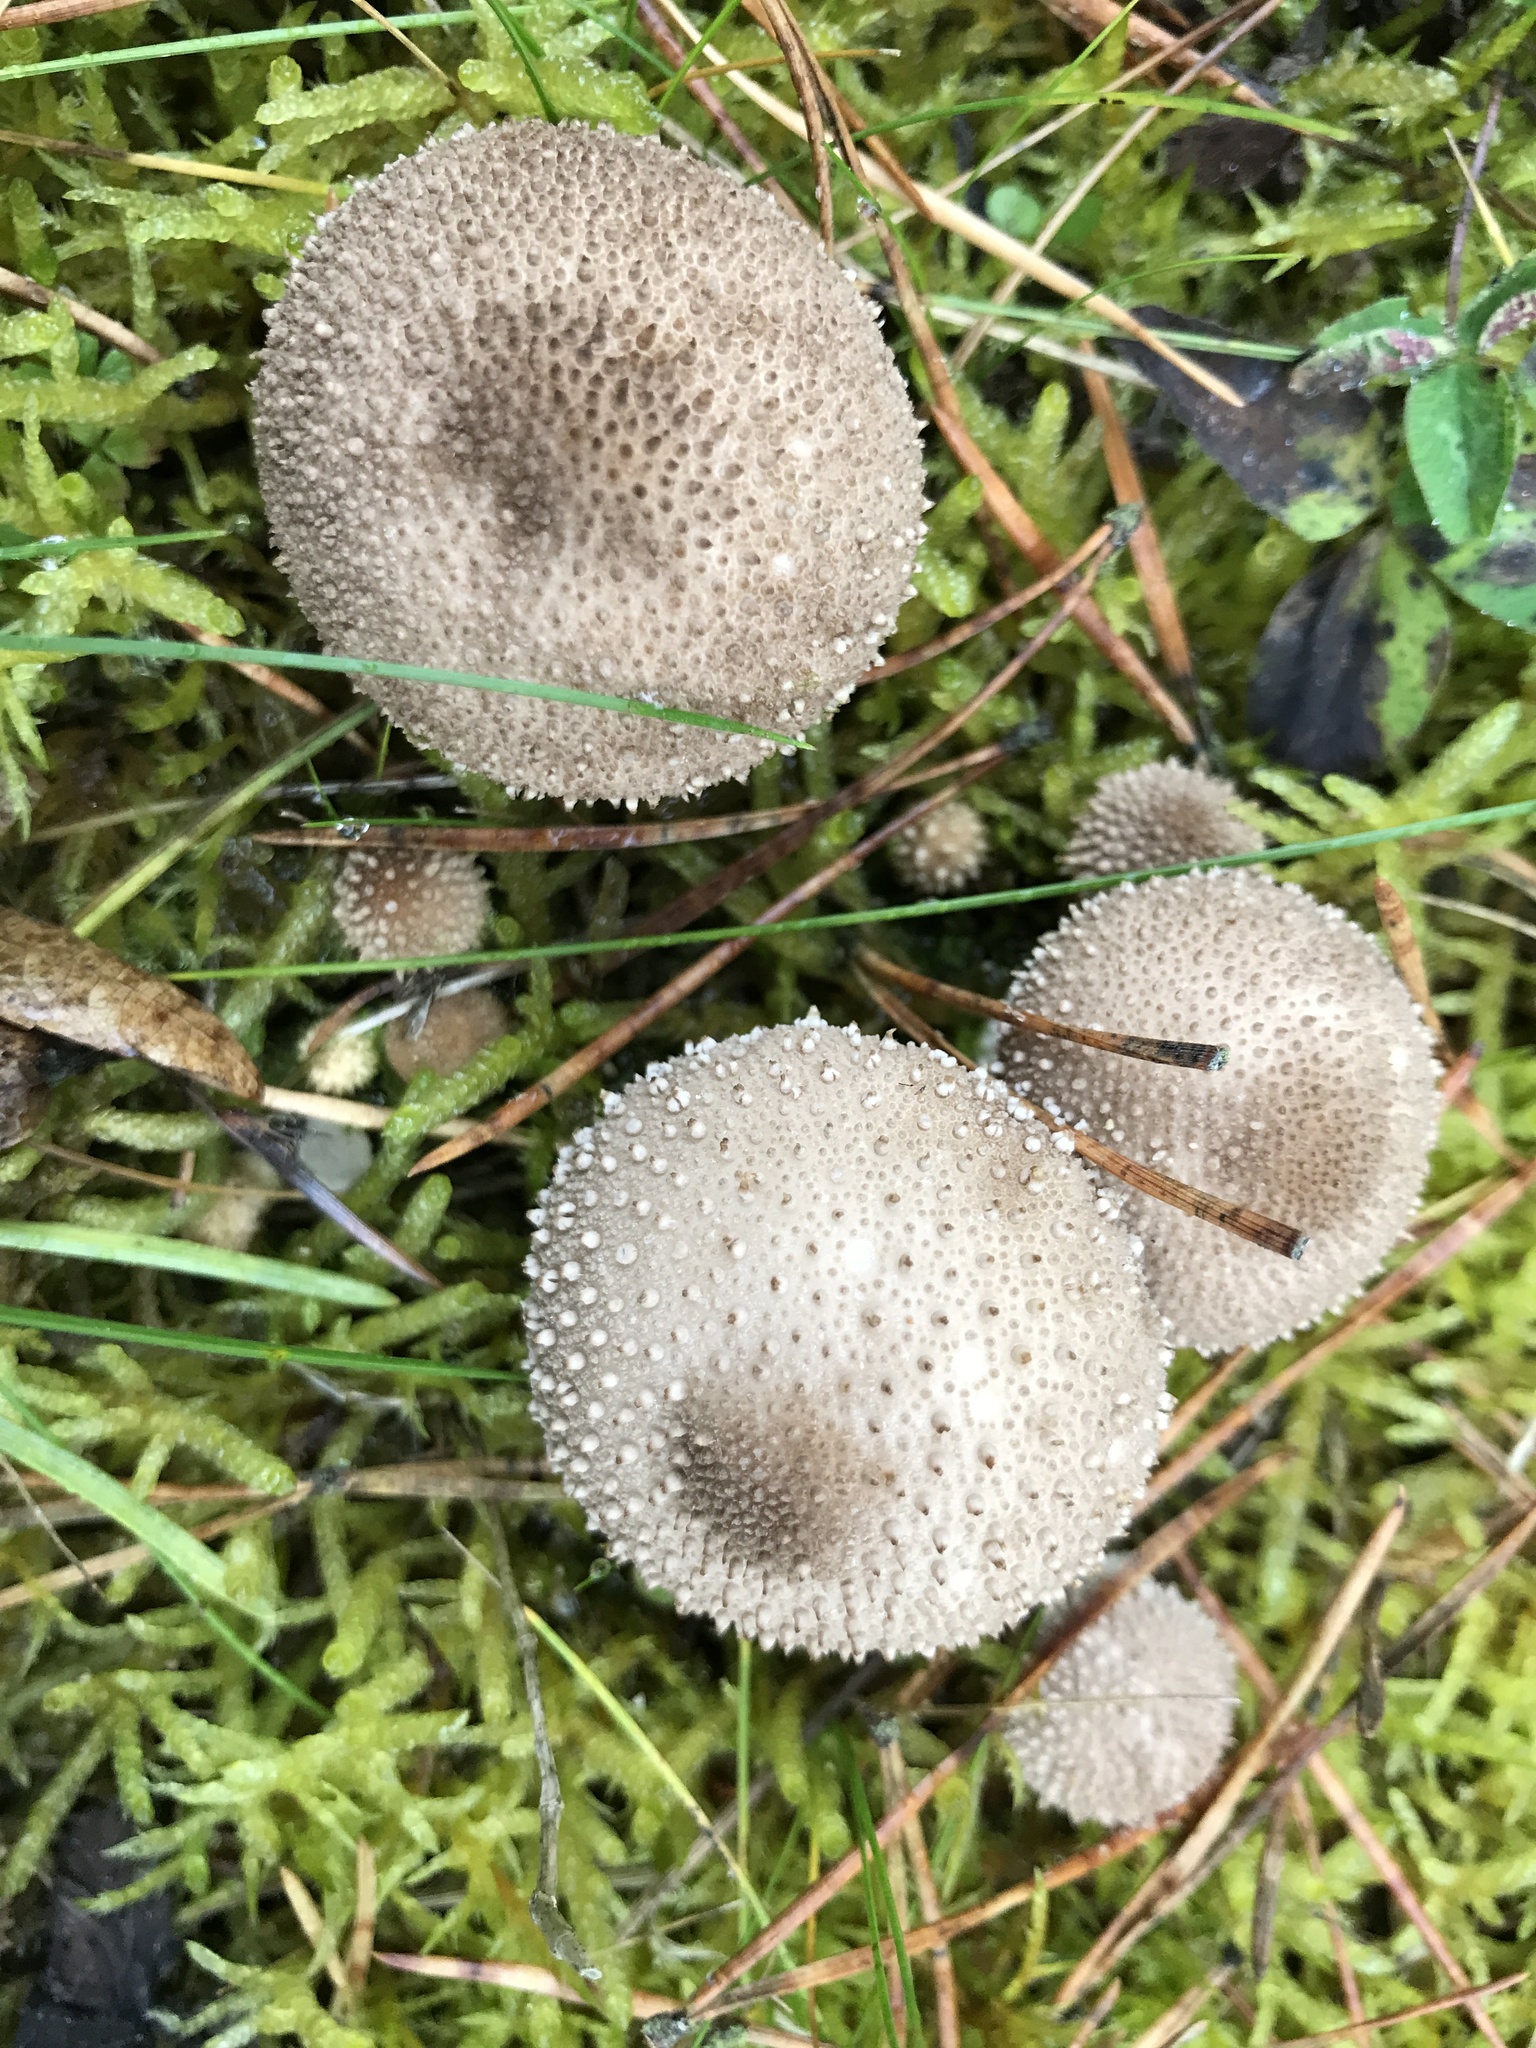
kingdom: Fungi
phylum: Basidiomycota
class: Agaricomycetes
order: Agaricales
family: Lycoperdaceae
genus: Lycoperdon
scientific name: Lycoperdon perlatum
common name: Common puffball
